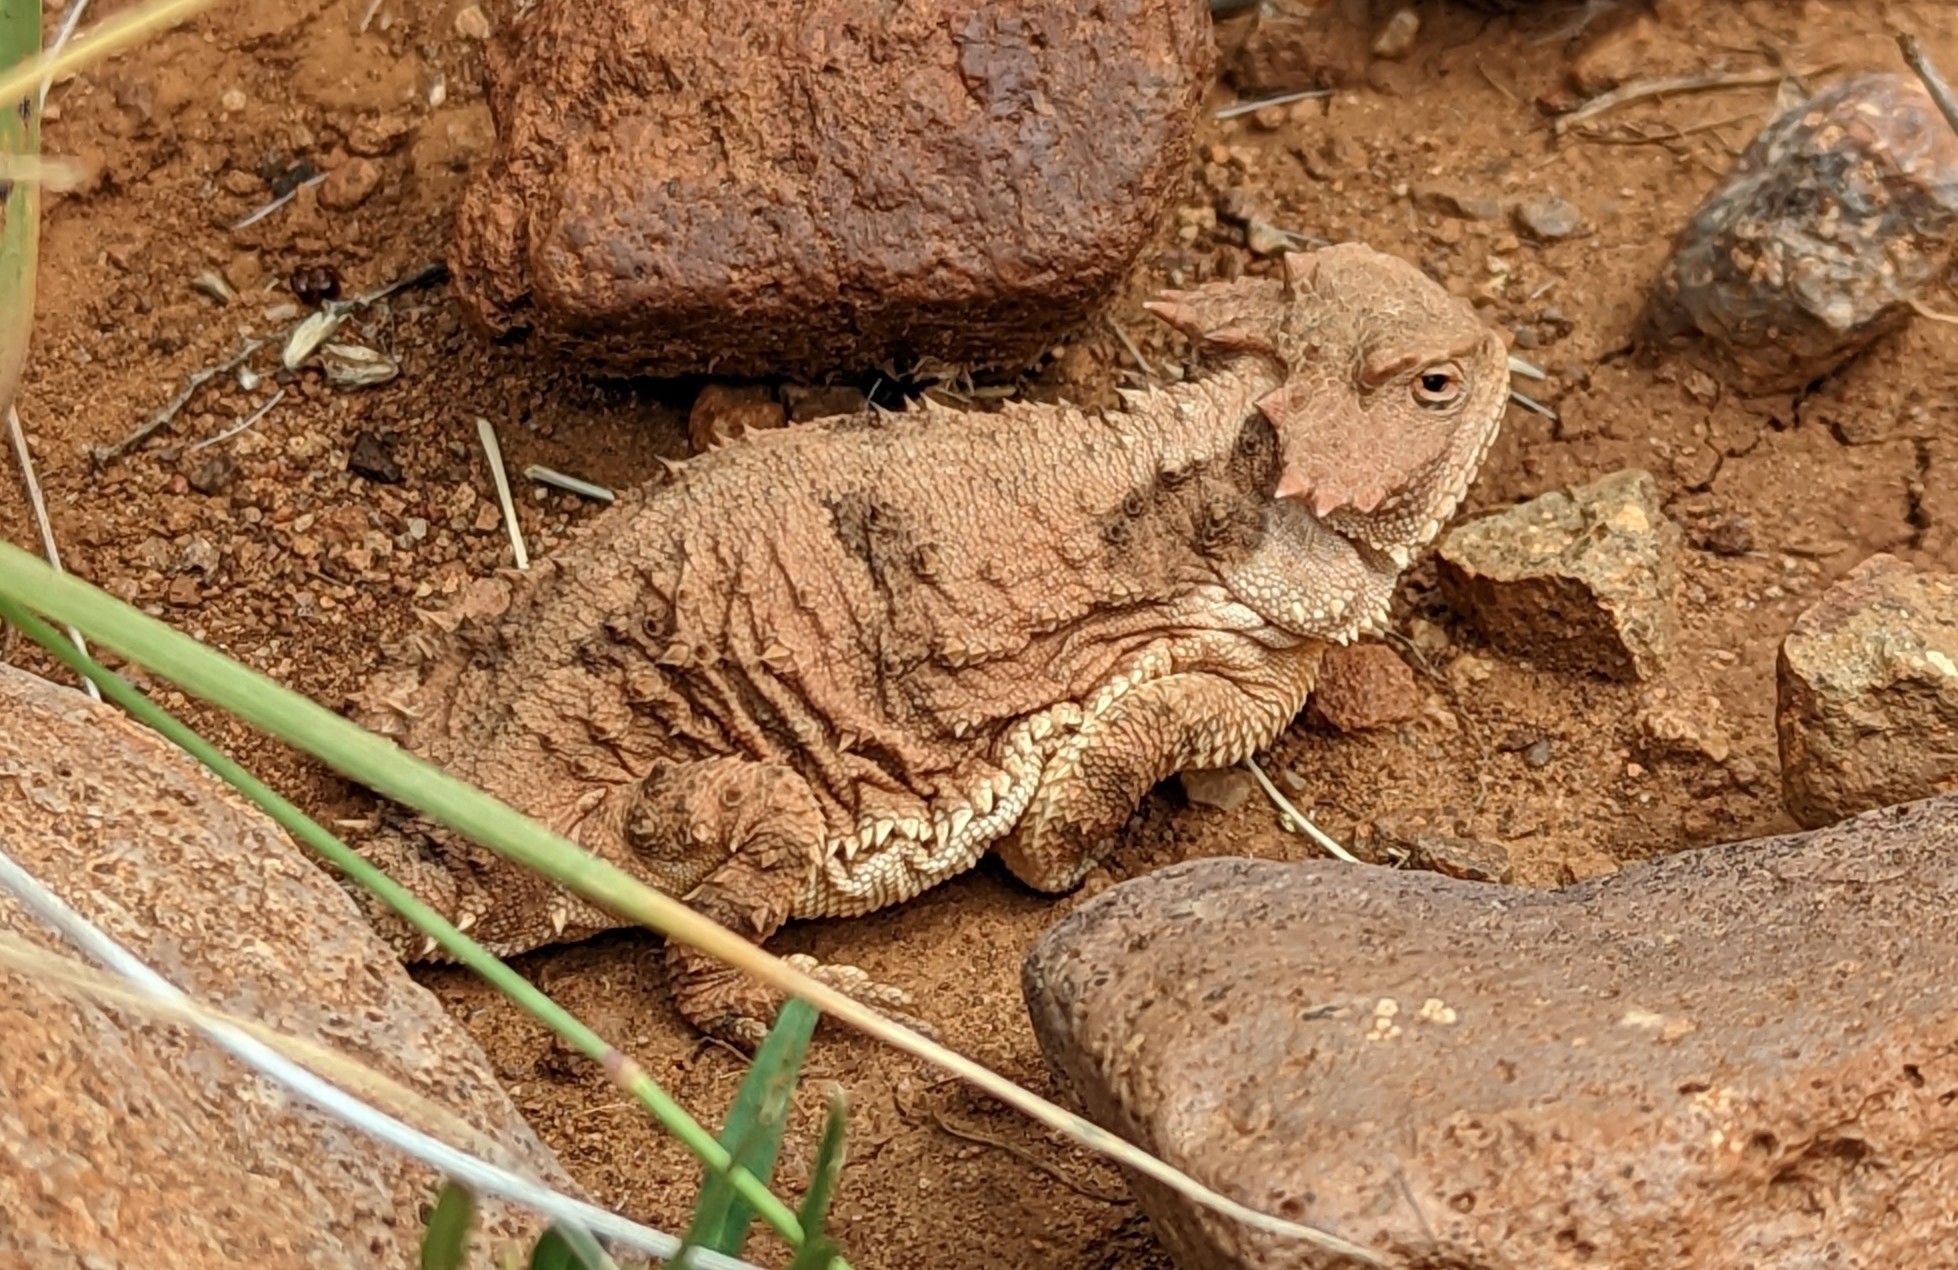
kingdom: Animalia
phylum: Chordata
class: Squamata
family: Phrynosomatidae
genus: Phrynosoma
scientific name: Phrynosoma hernandesi
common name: Greater short-horned lizard
